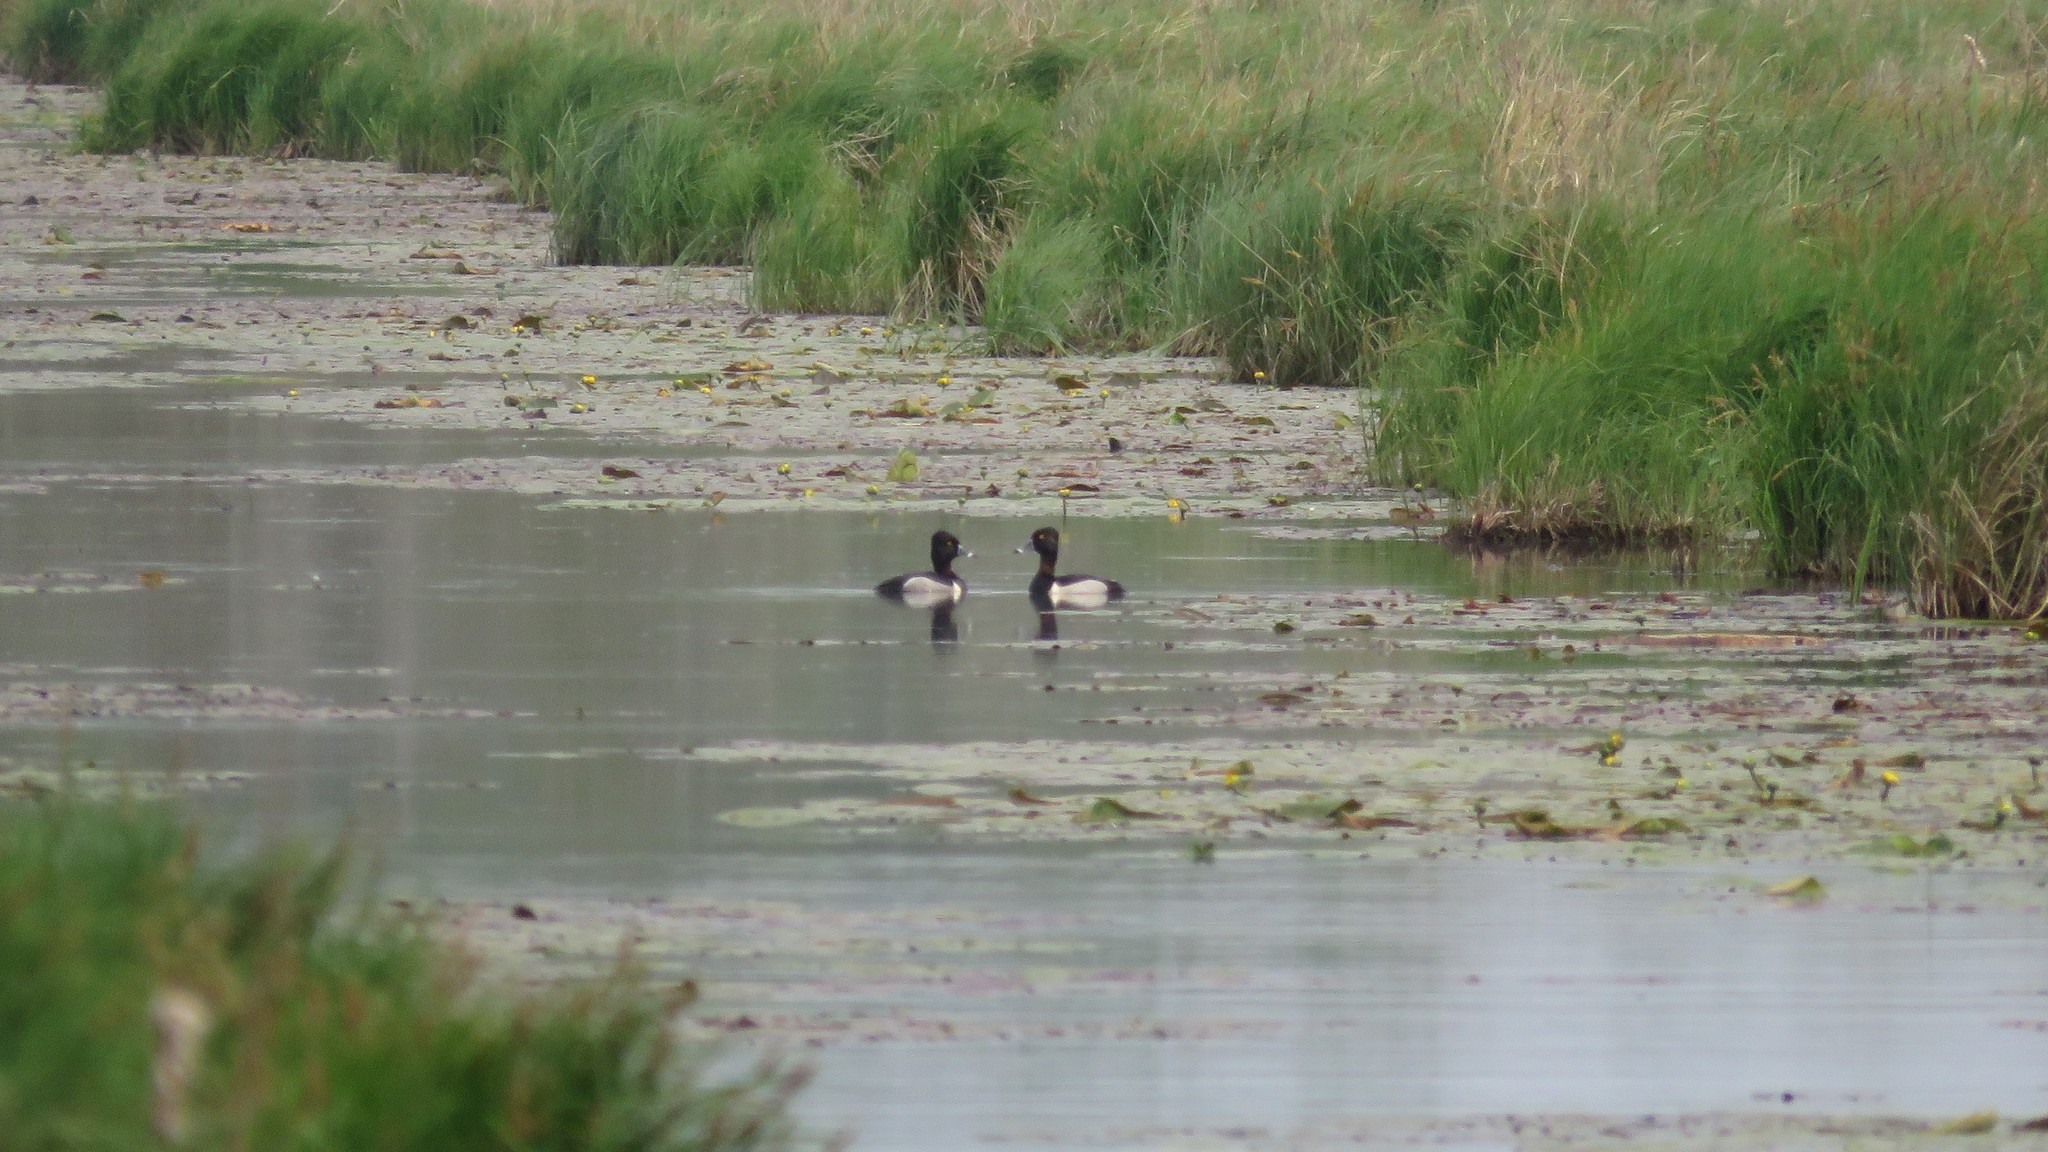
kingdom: Animalia
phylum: Chordata
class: Aves
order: Anseriformes
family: Anatidae
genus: Aythya
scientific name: Aythya collaris
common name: Ring-necked duck
